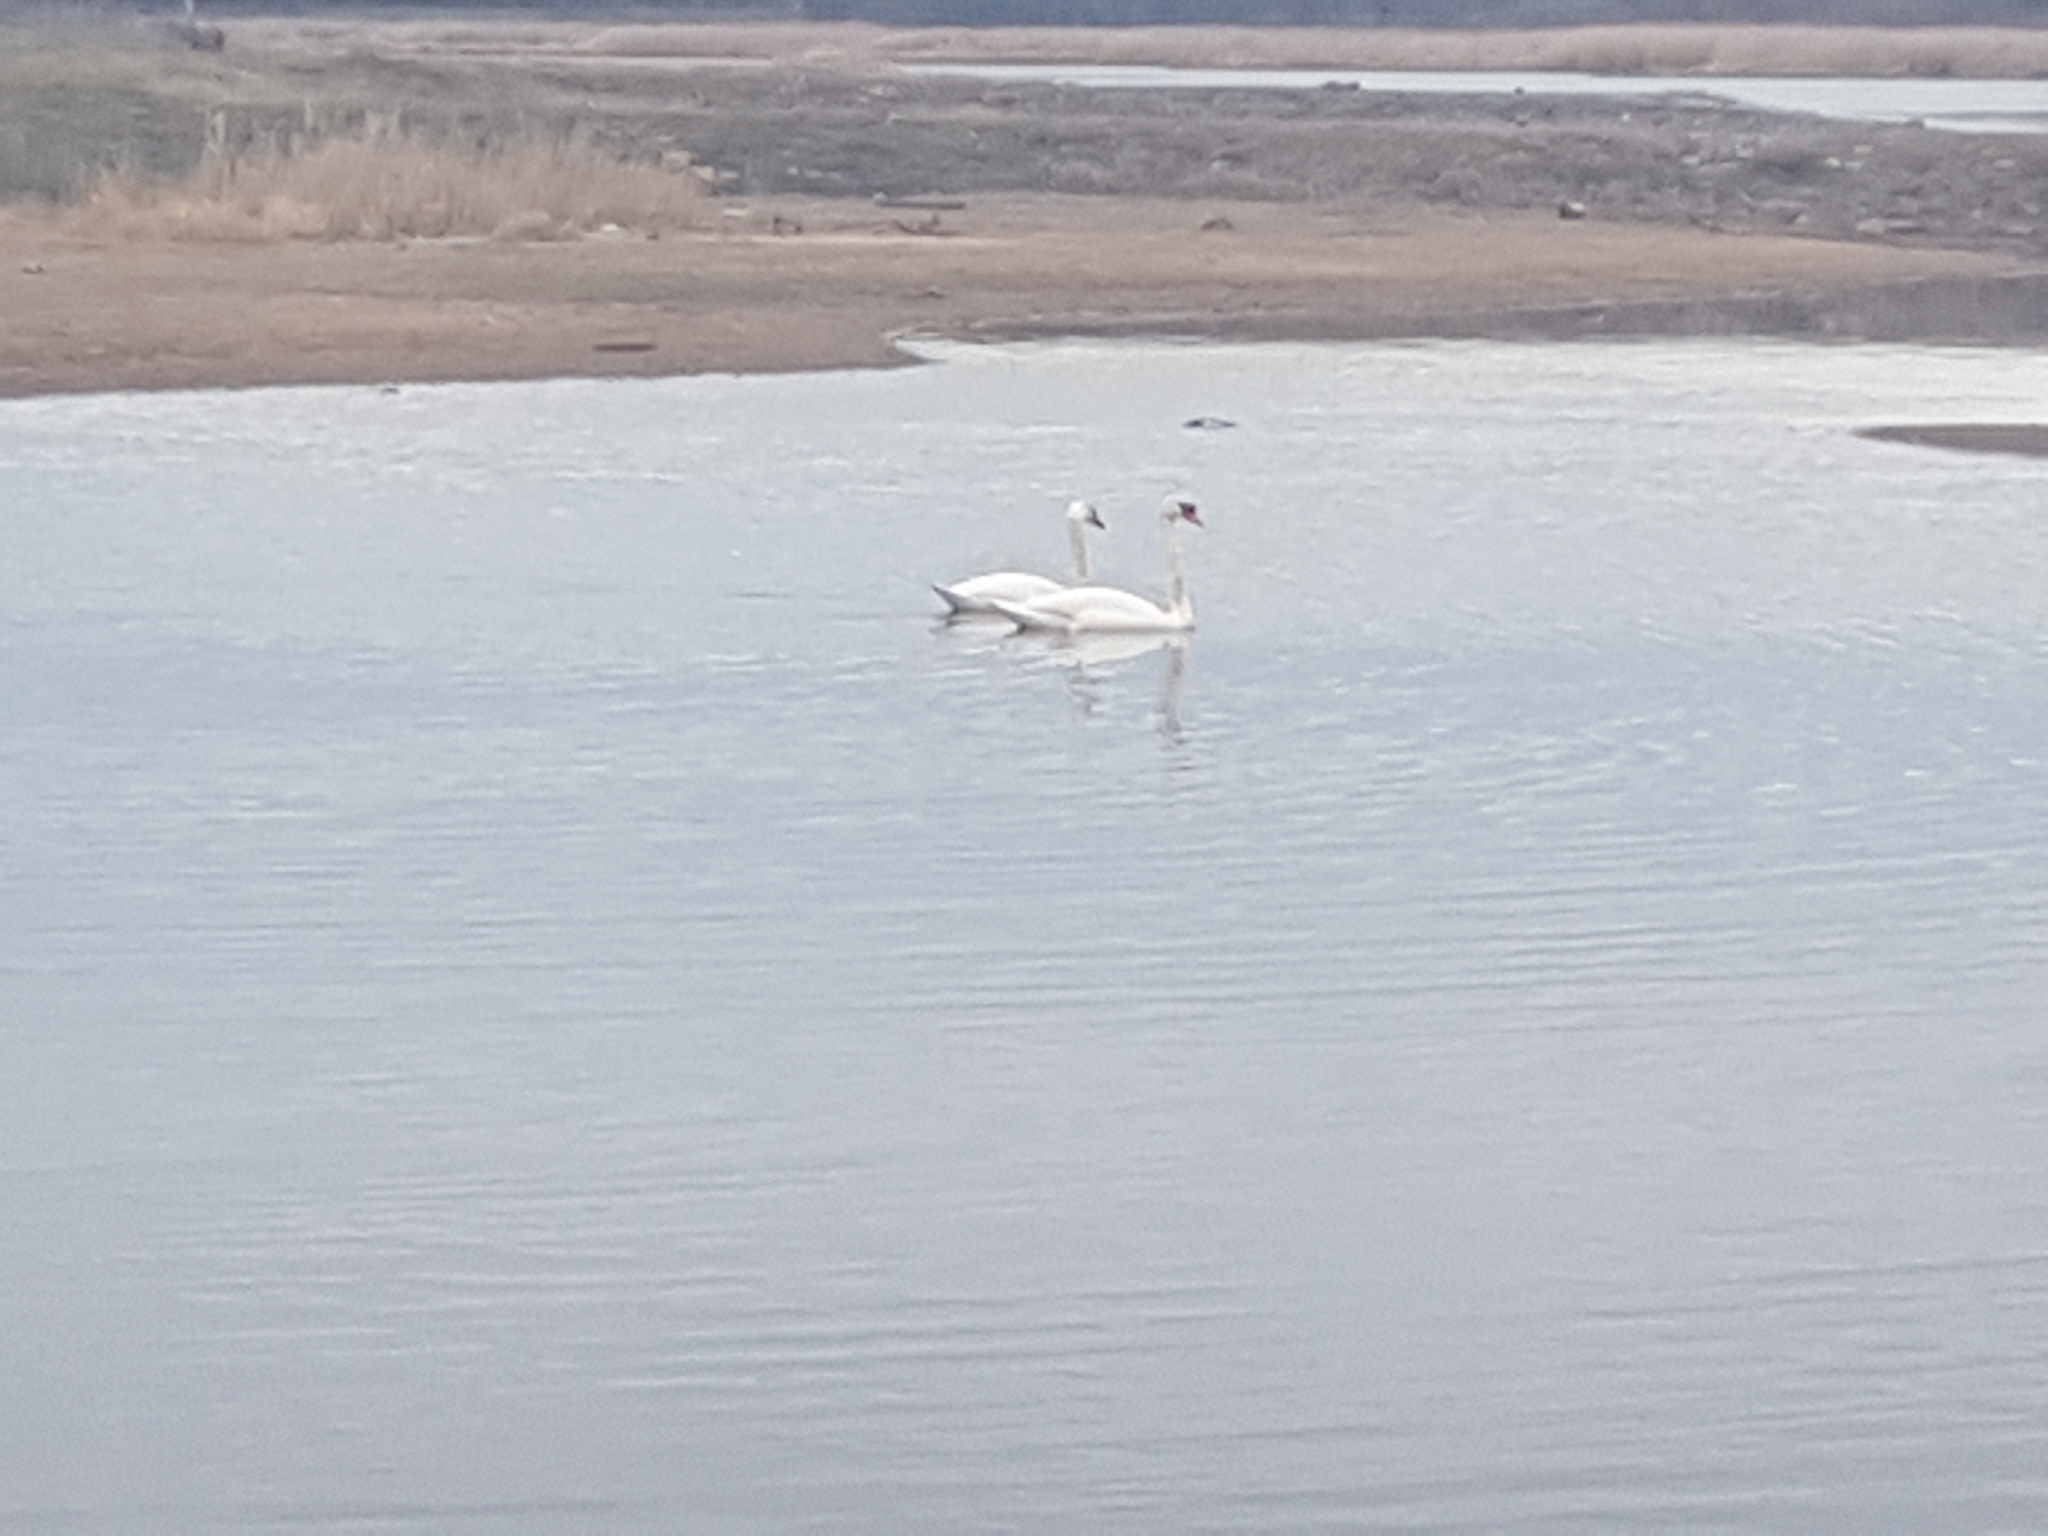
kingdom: Animalia
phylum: Chordata
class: Aves
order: Anseriformes
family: Anatidae
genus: Cygnus
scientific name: Cygnus olor
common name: Mute swan
